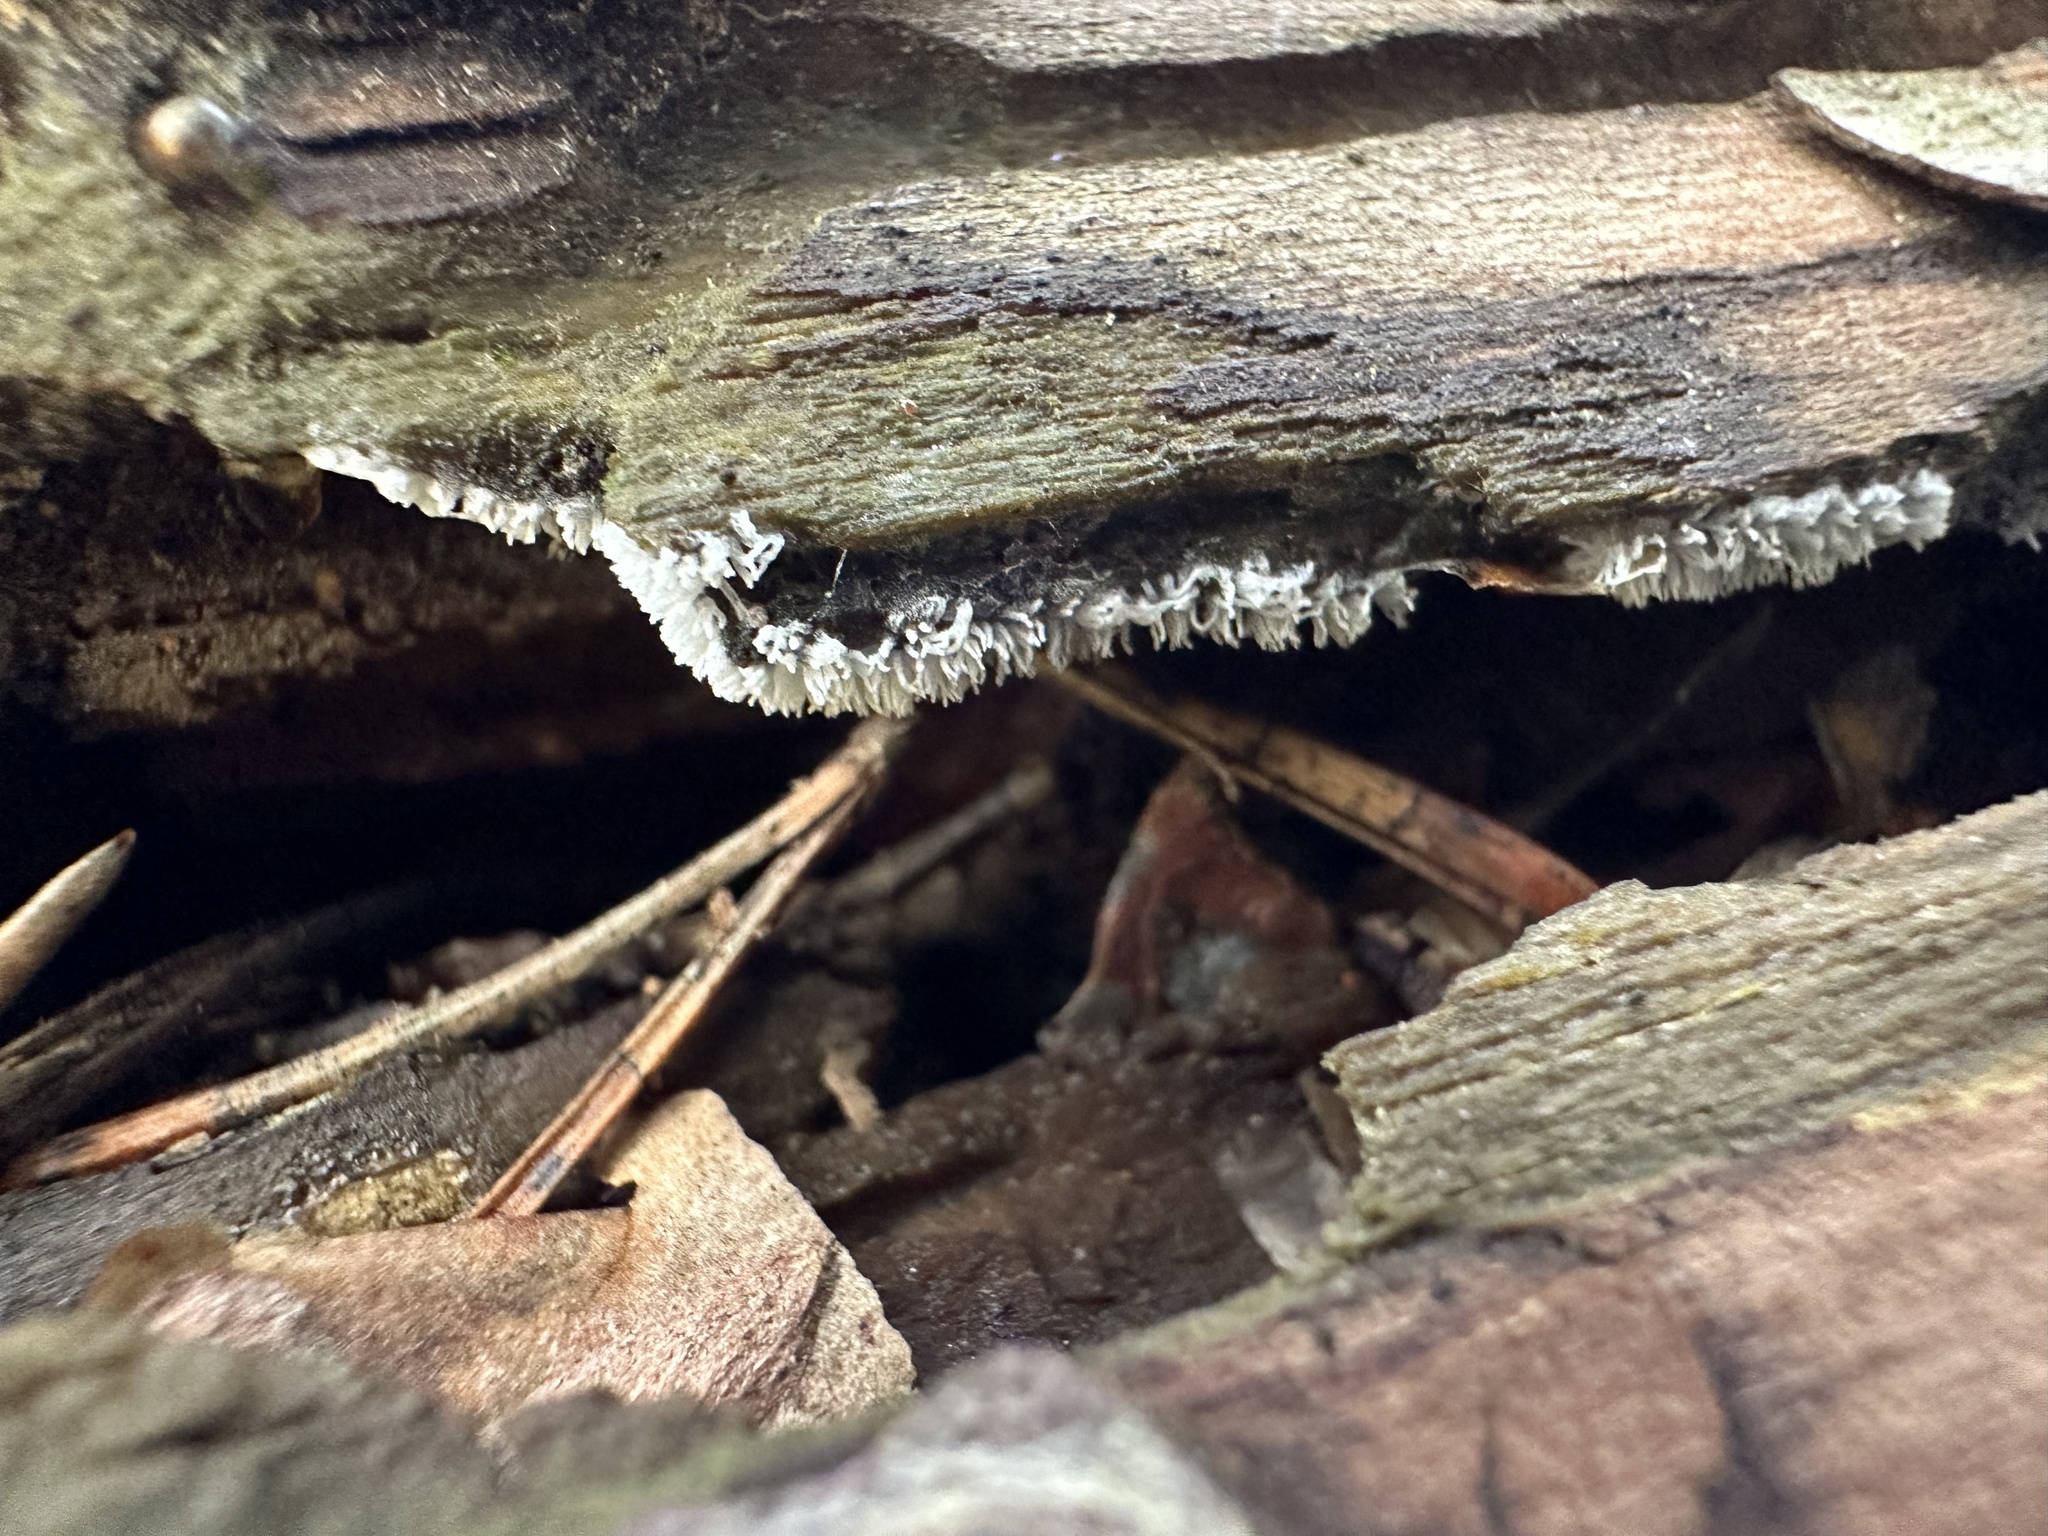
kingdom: Protozoa
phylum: Mycetozoa
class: Protosteliomycetes
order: Ceratiomyxales
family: Ceratiomyxaceae
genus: Ceratiomyxa
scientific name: Ceratiomyxa fruticulosa
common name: Honeycomb coral slime mold
